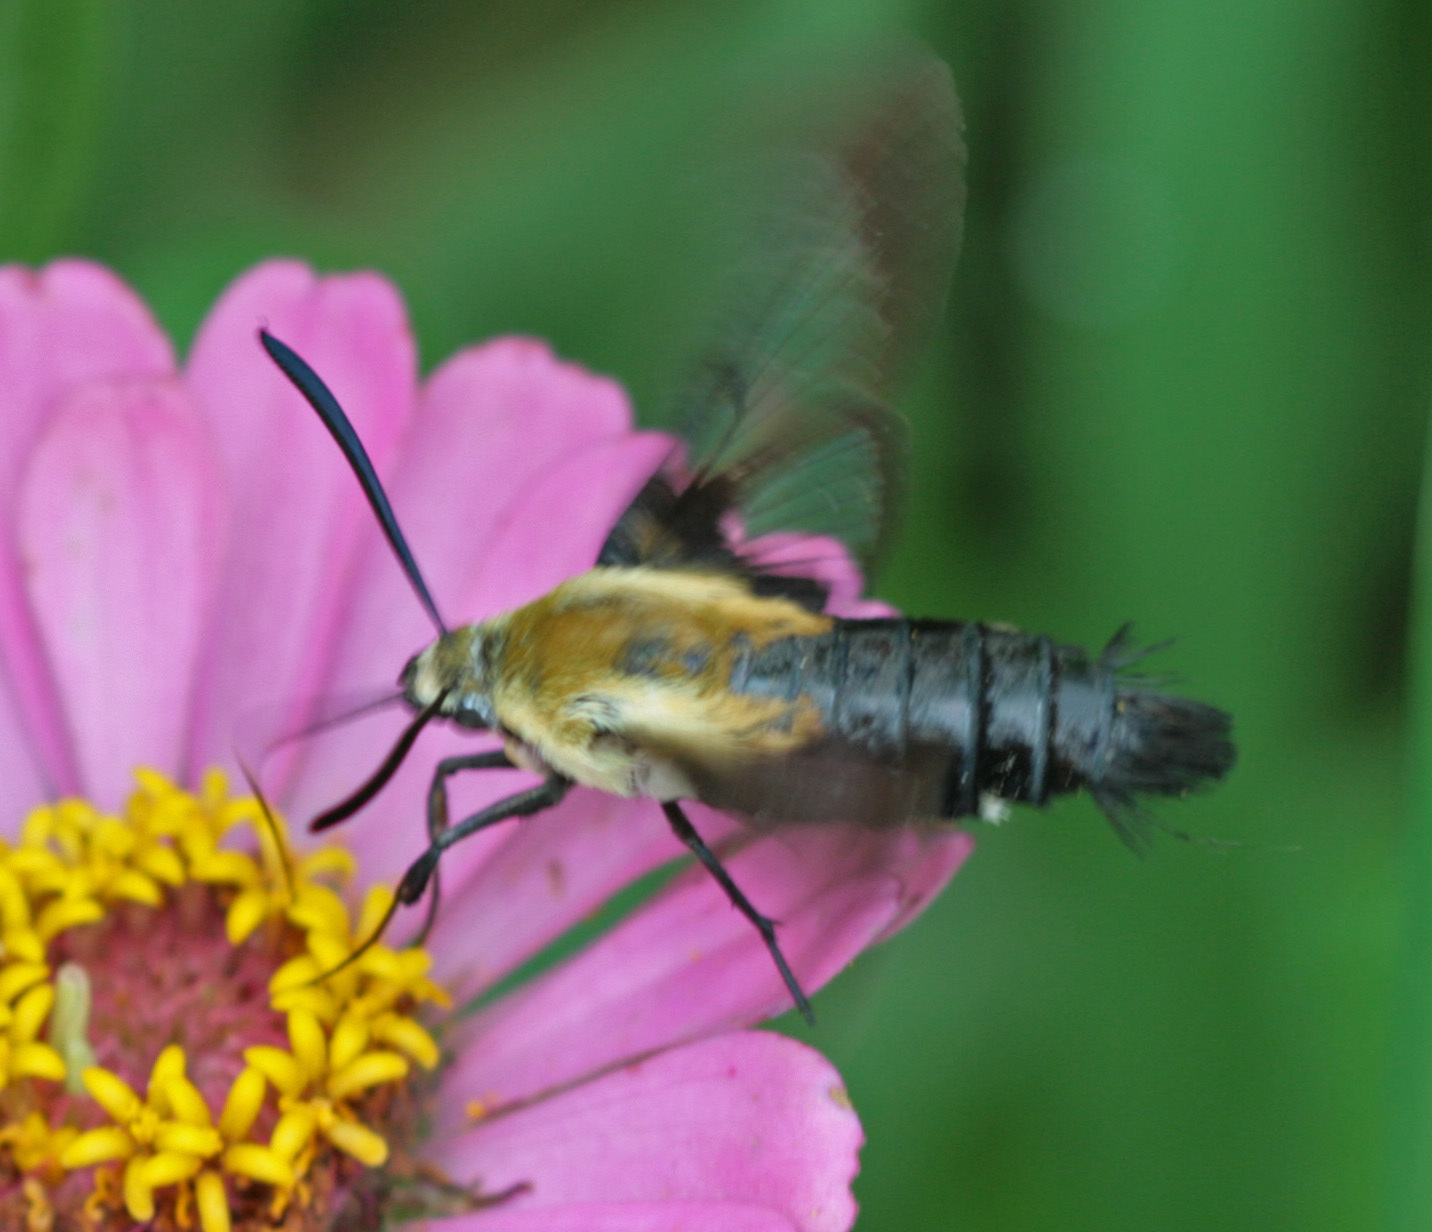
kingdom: Animalia
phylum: Arthropoda
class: Insecta
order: Lepidoptera
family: Sphingidae
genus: Hemaris
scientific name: Hemaris diffinis
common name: Bumblebee moth
